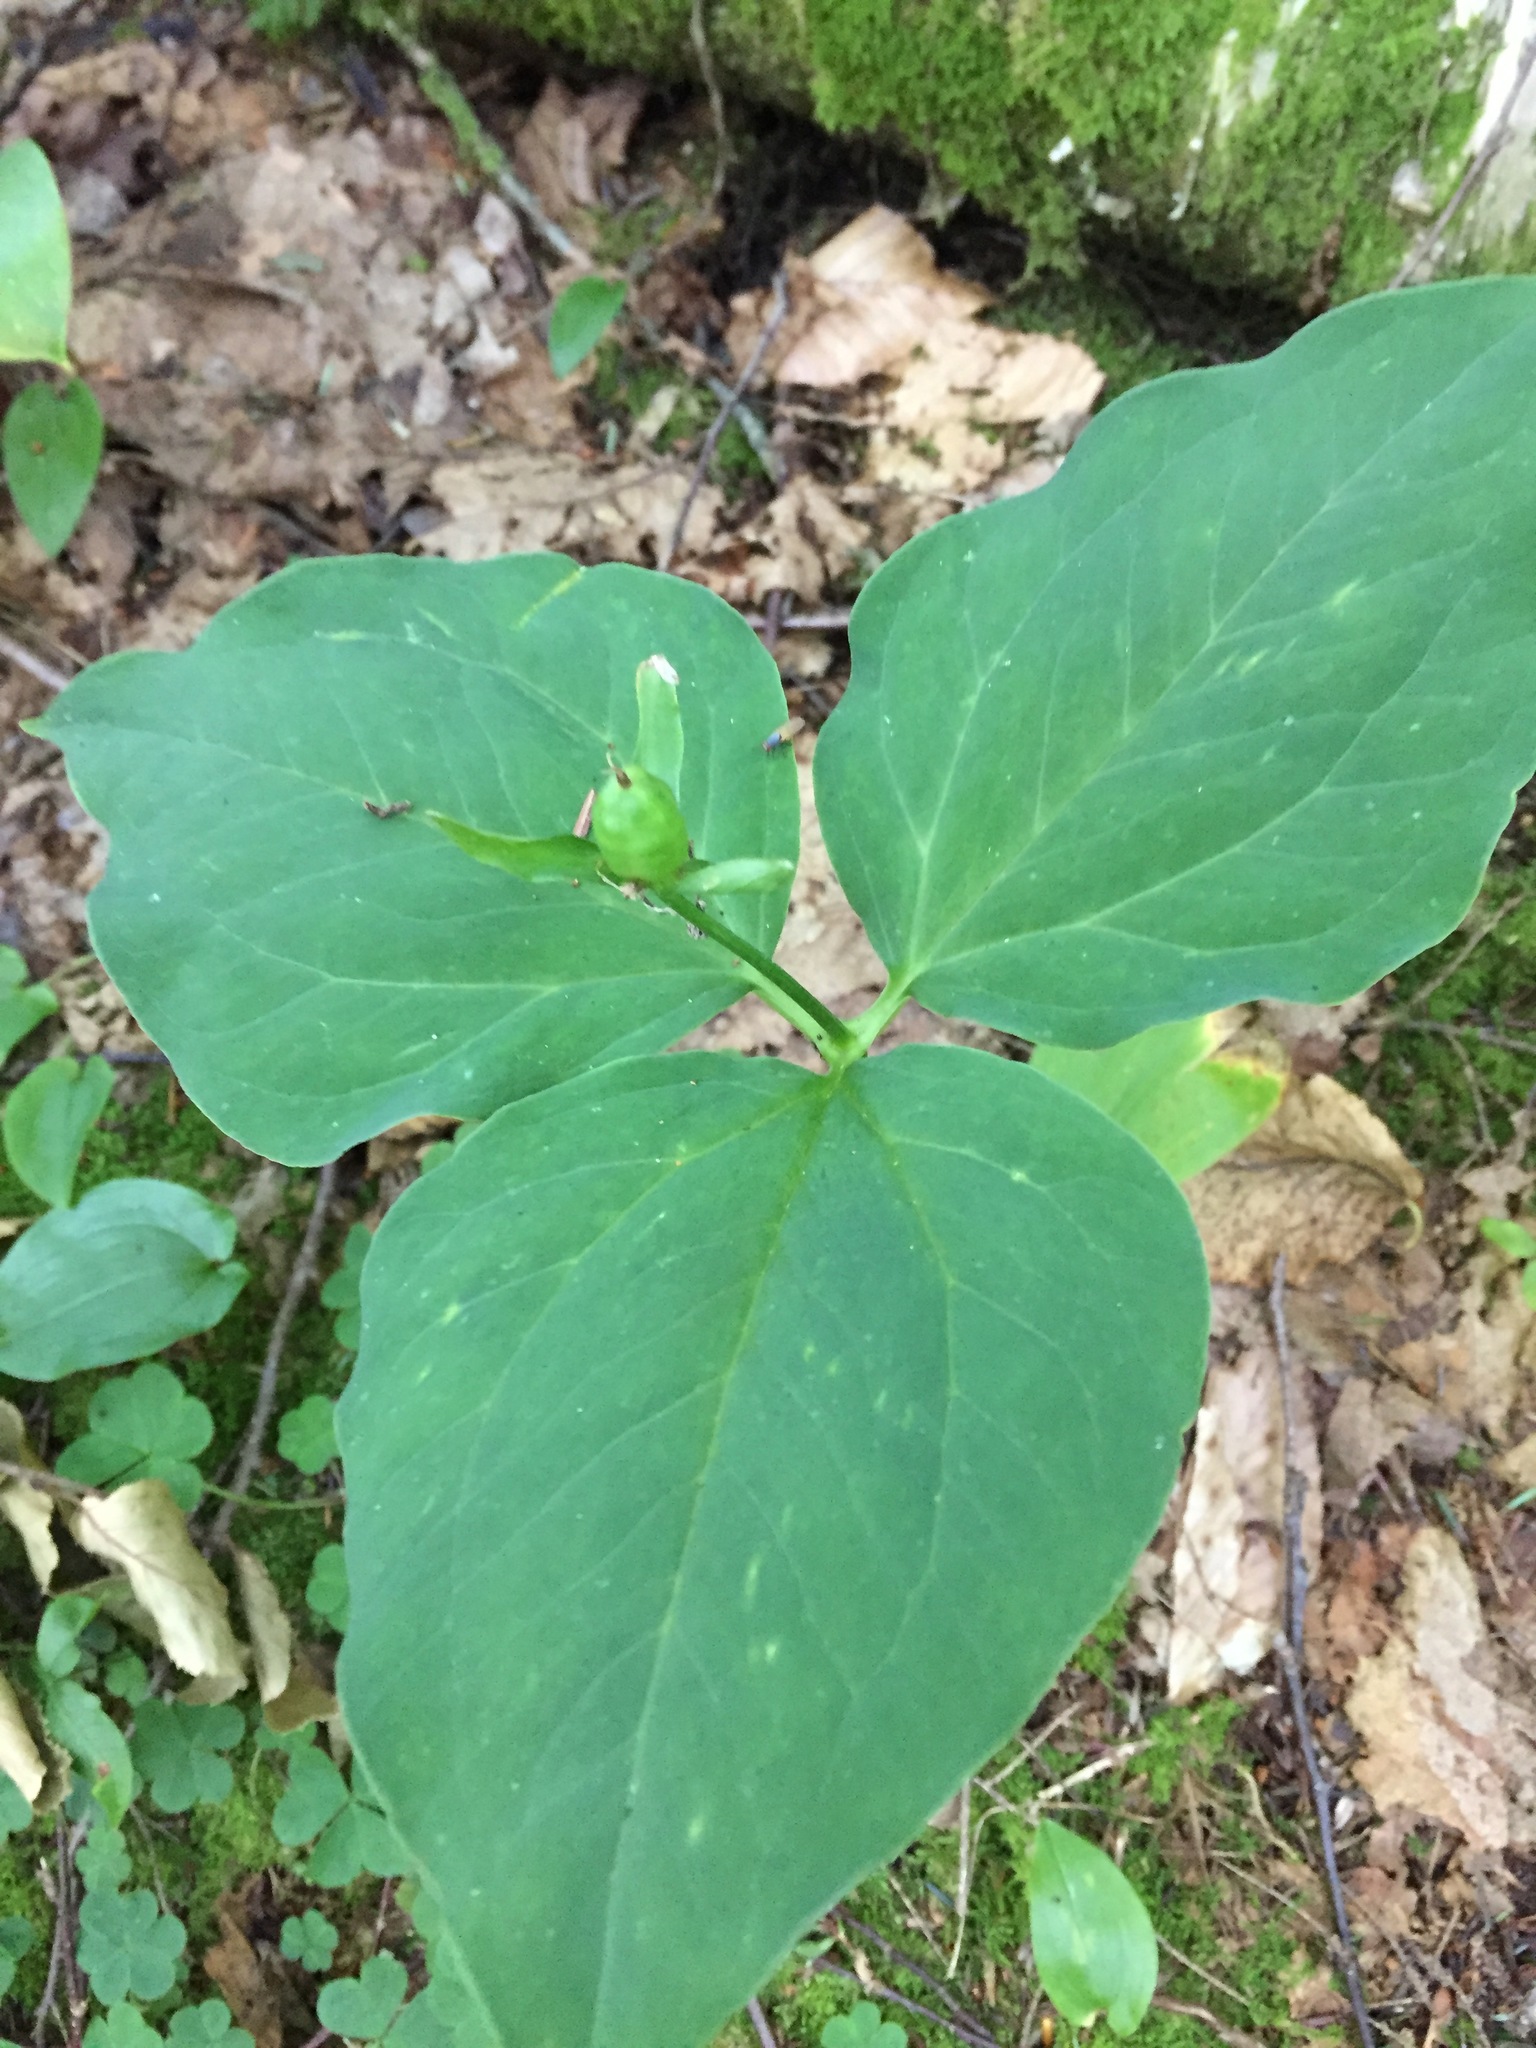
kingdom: Plantae
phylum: Tracheophyta
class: Liliopsida
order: Liliales
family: Melanthiaceae
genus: Trillium
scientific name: Trillium undulatum
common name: Paint trillium
